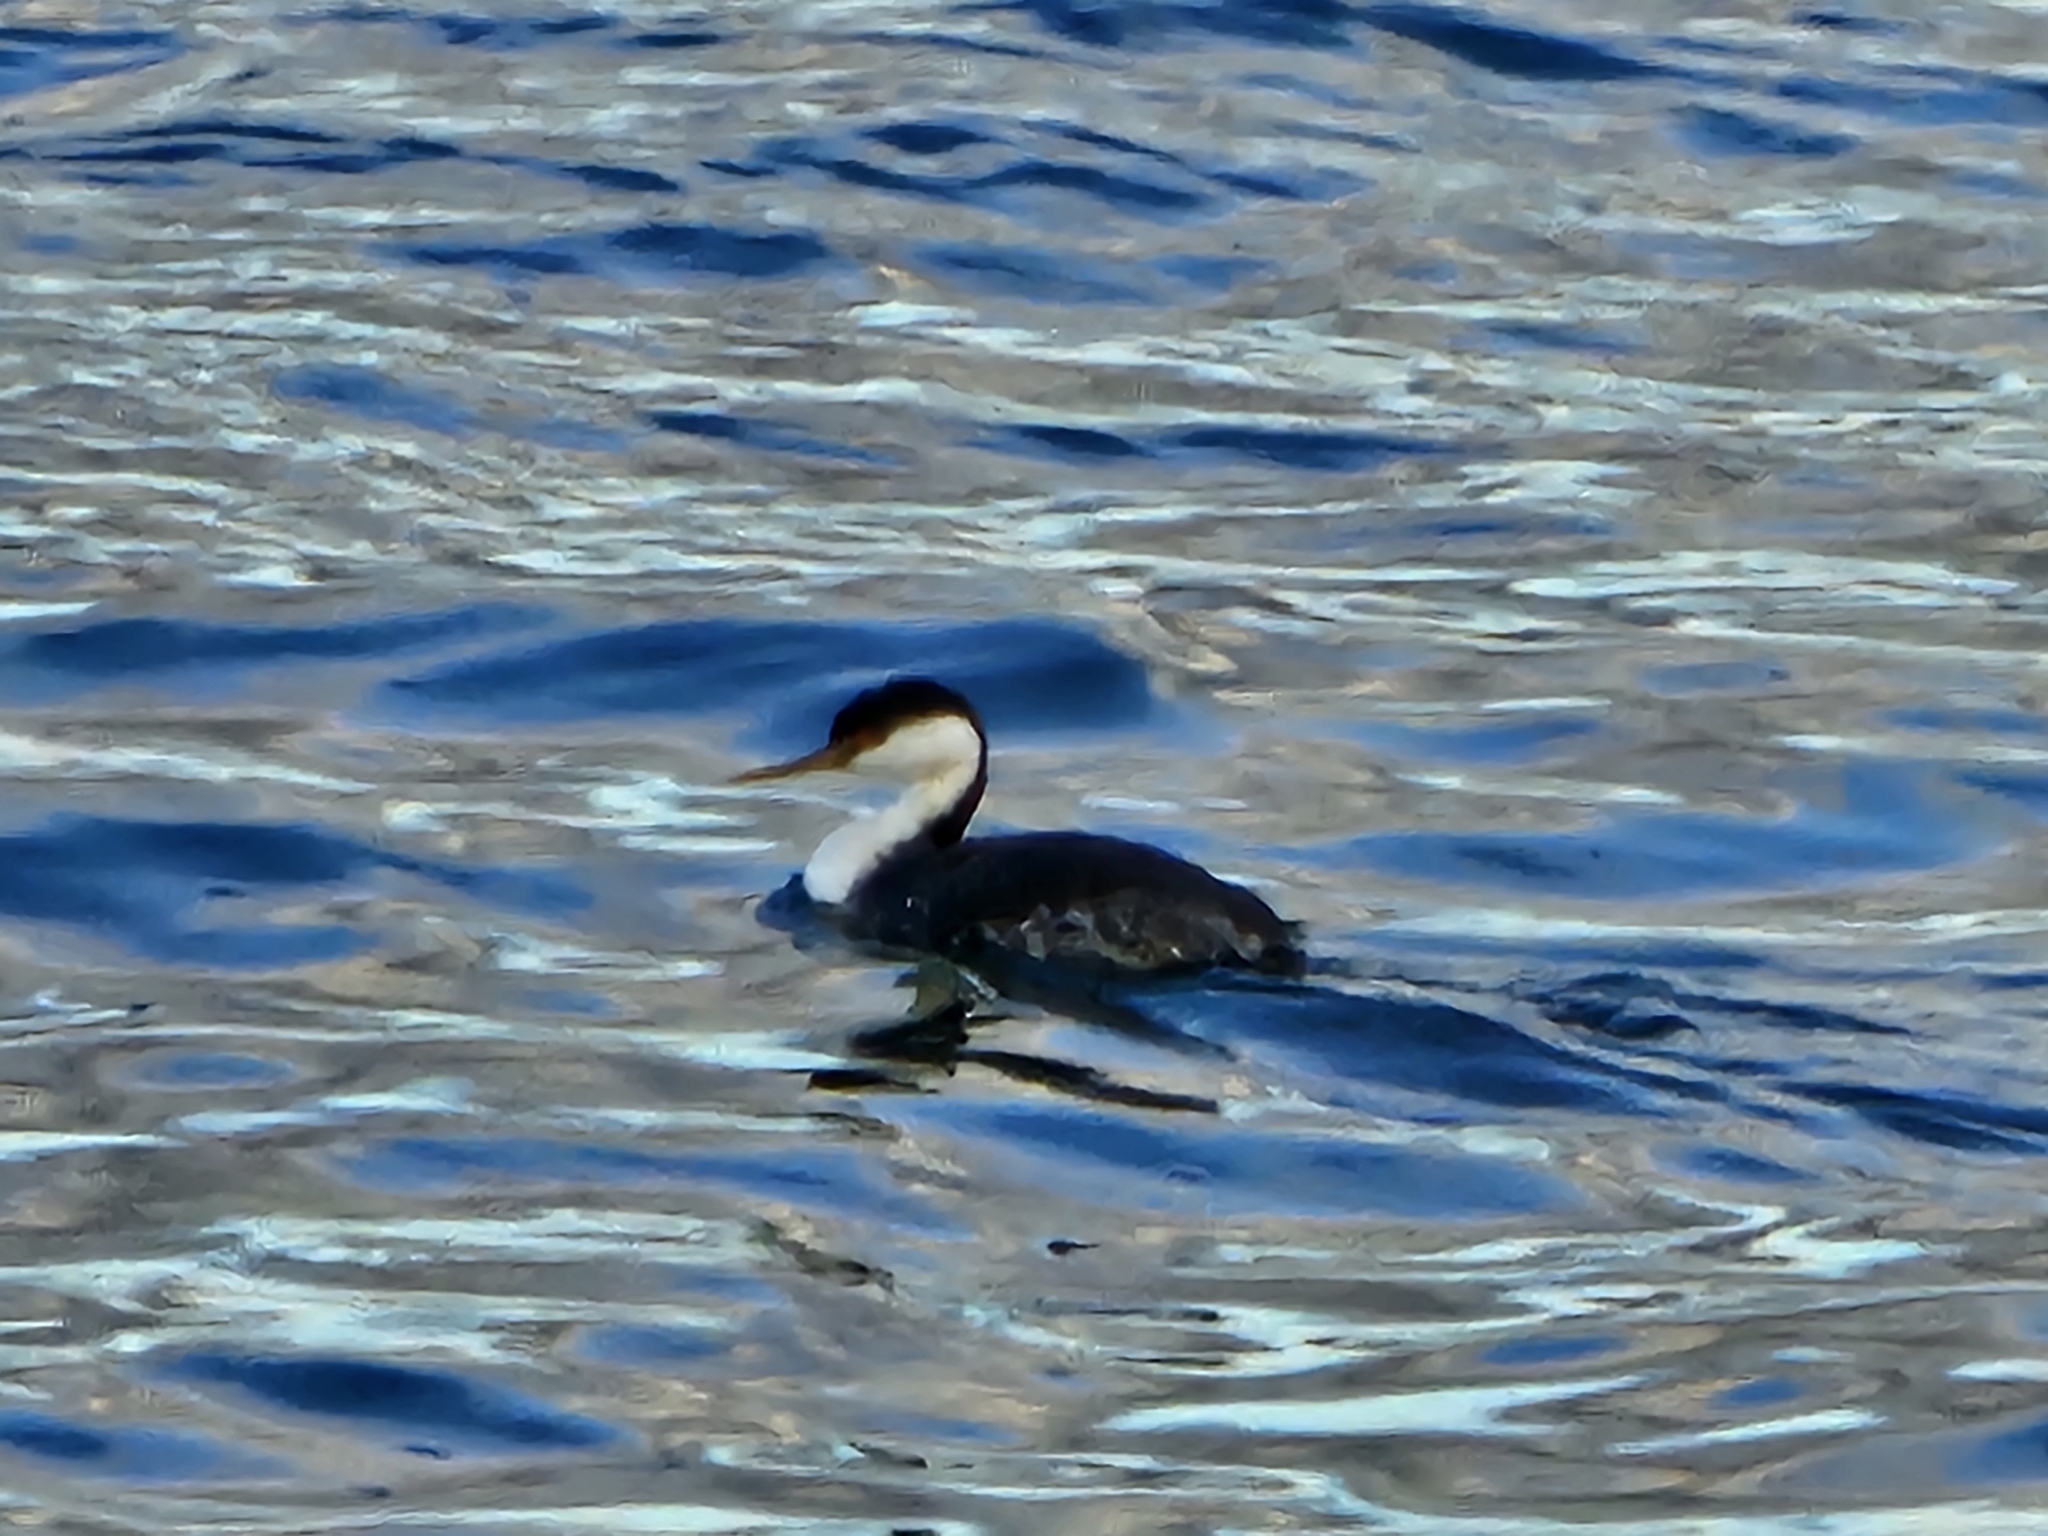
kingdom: Animalia
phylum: Chordata
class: Aves
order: Podicipediformes
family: Podicipedidae
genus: Aechmophorus
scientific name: Aechmophorus occidentalis
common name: Western grebe
